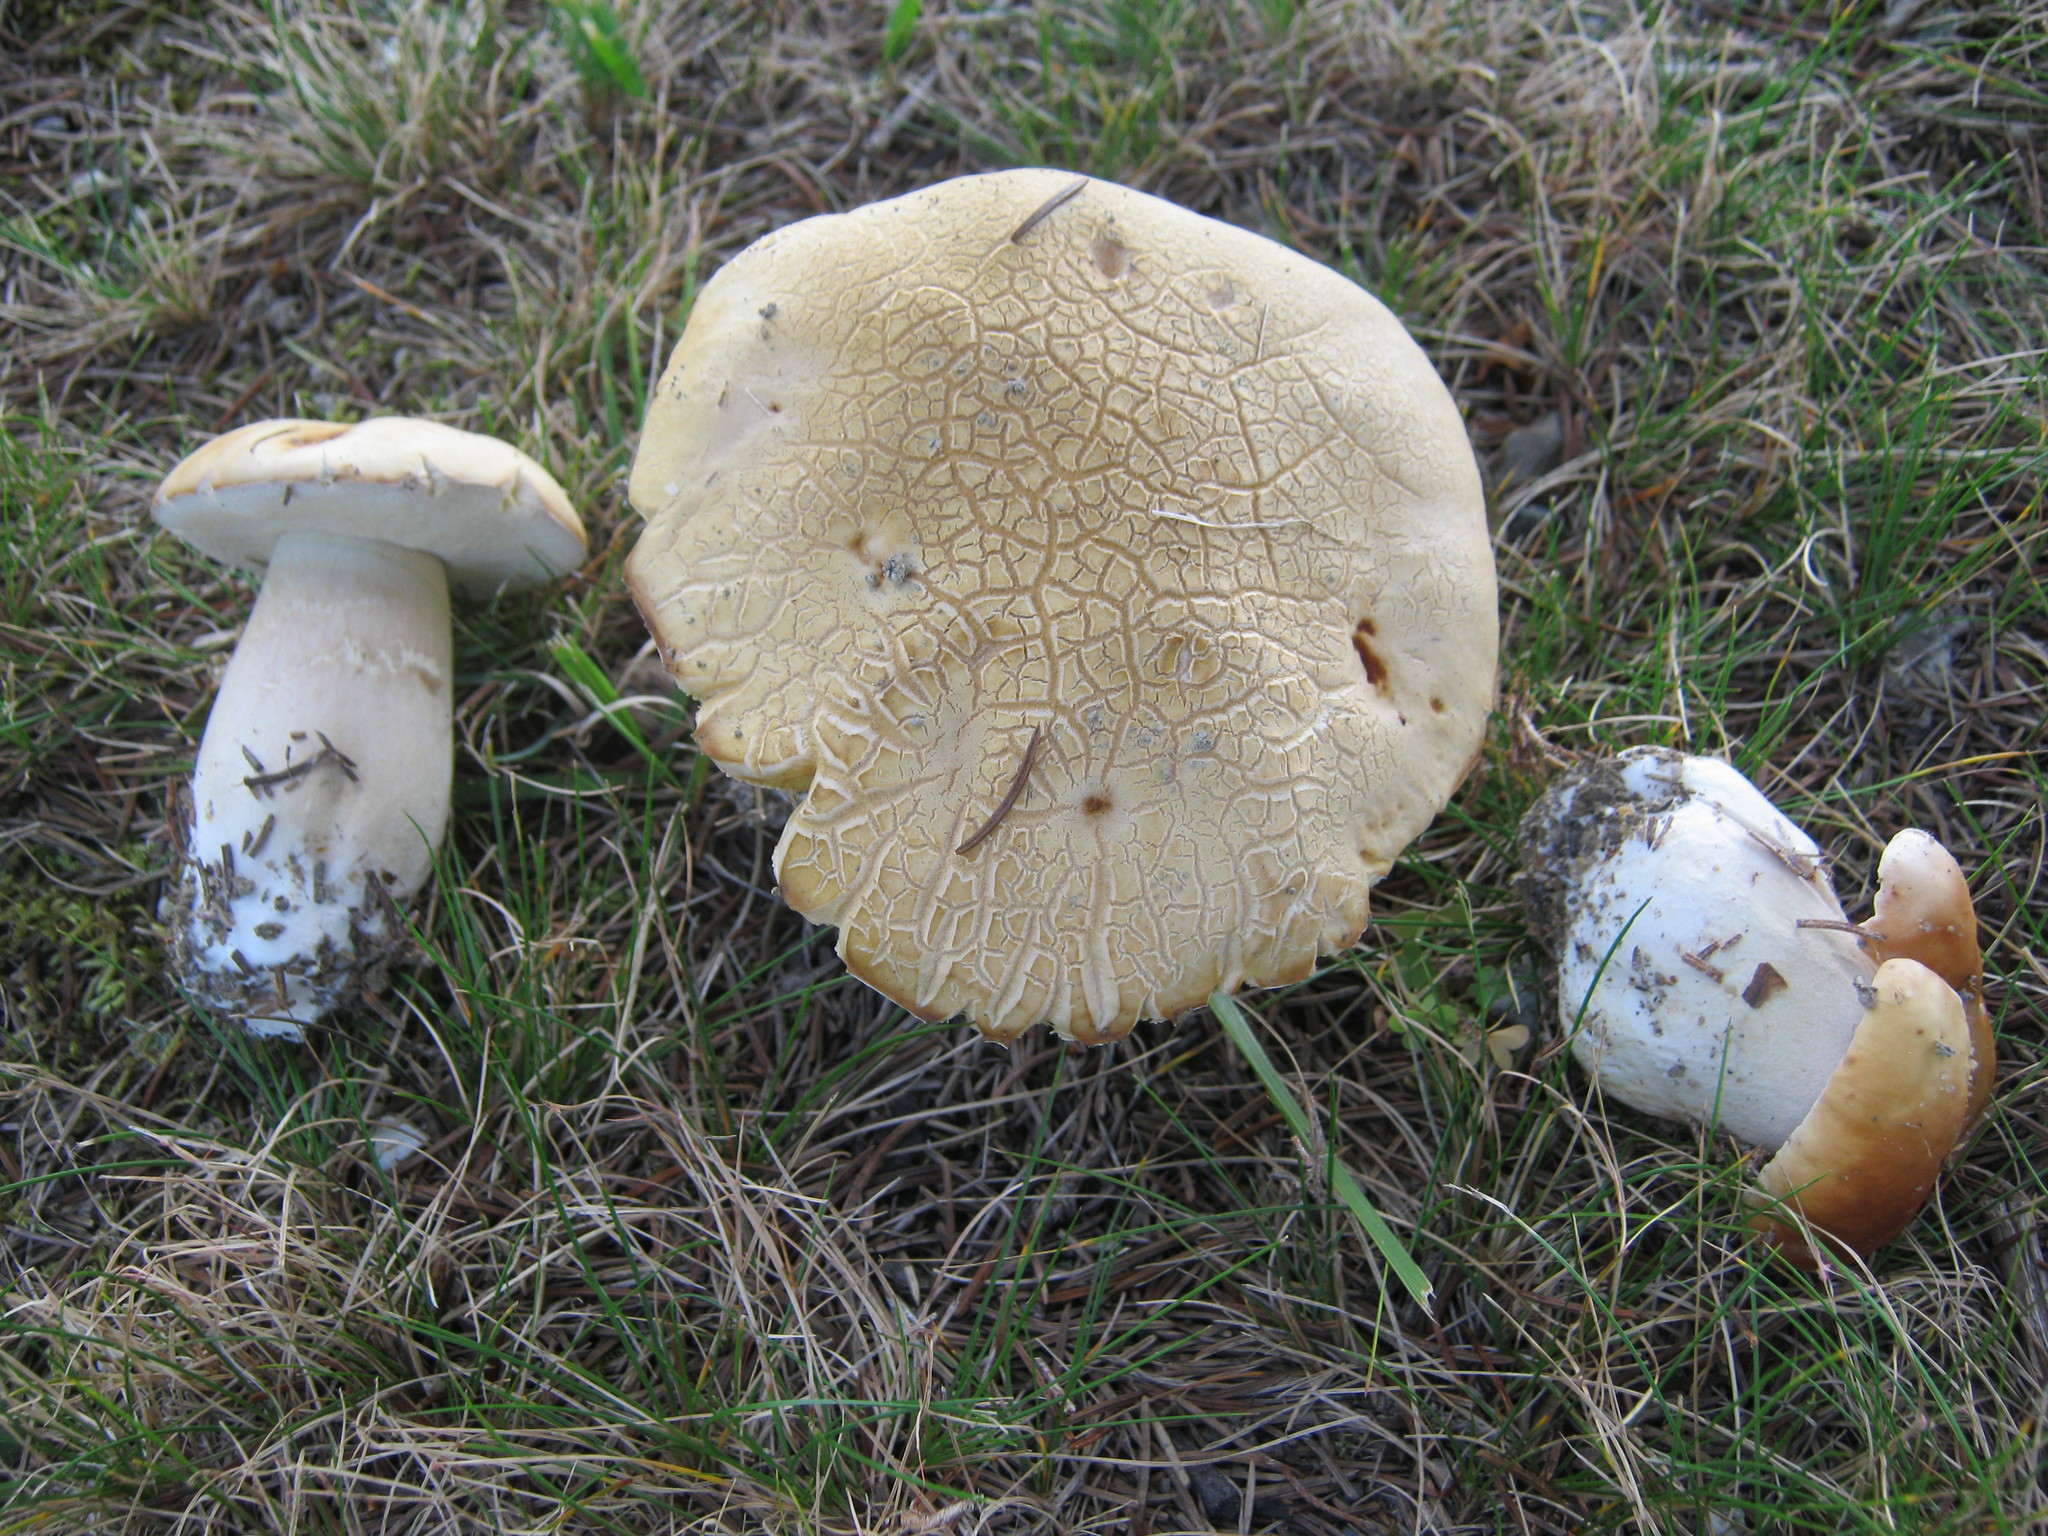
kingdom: Fungi
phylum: Basidiomycota
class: Agaricomycetes
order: Boletales
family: Boletaceae
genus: Boletus
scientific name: Boletus chippewaensis
